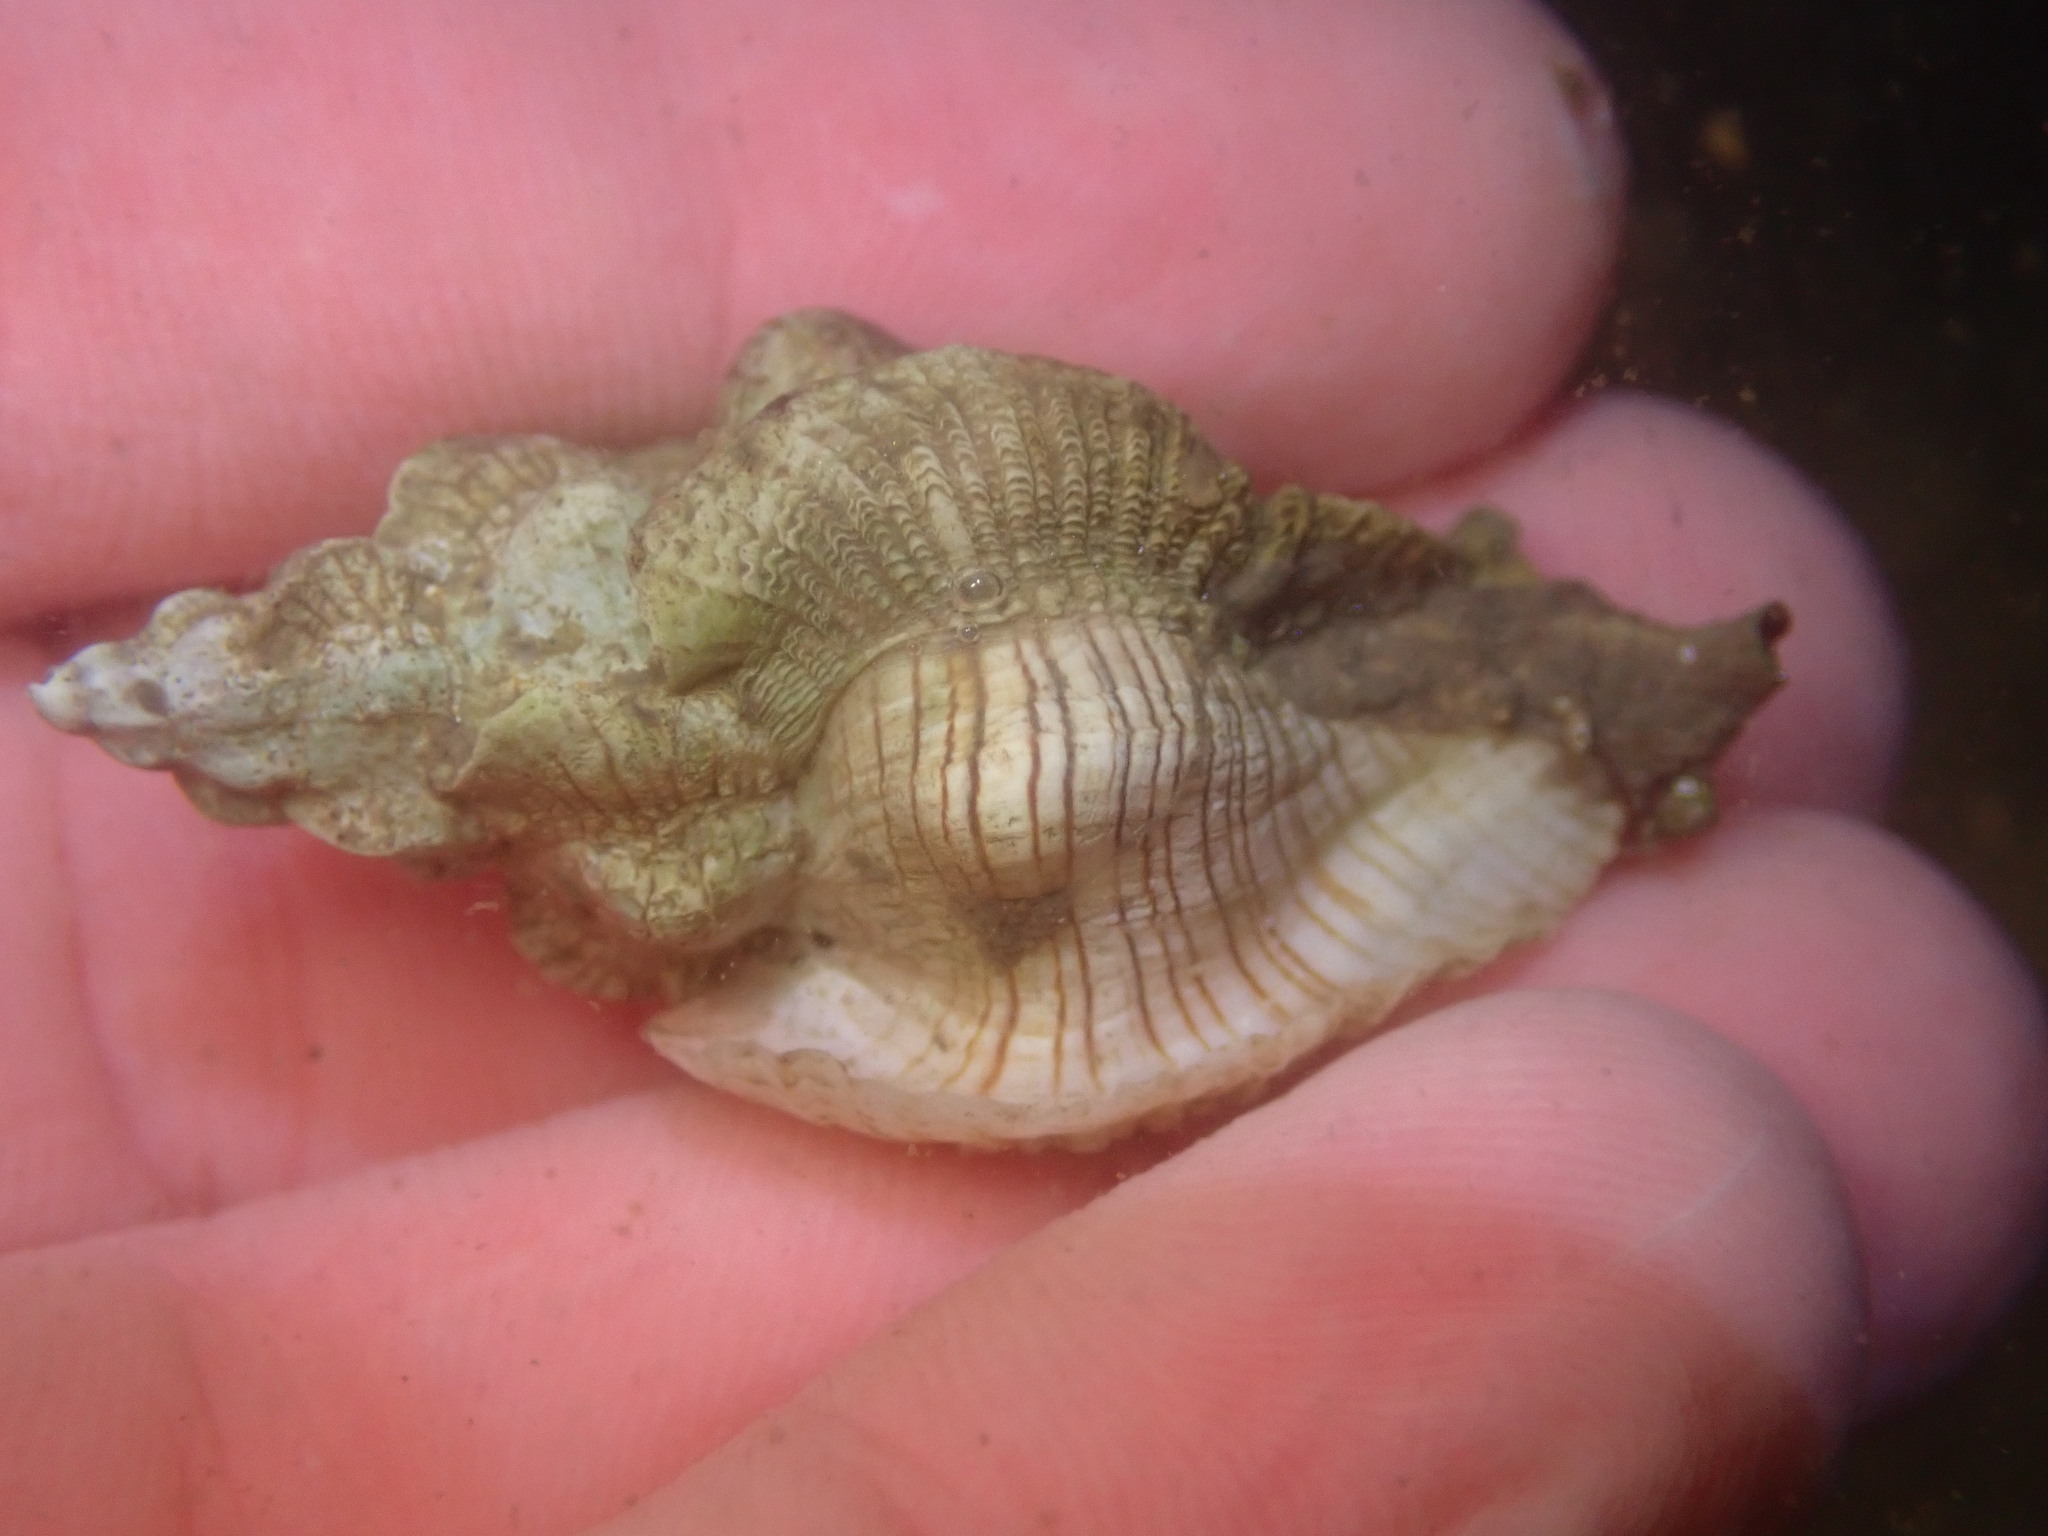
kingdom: Animalia
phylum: Mollusca
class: Gastropoda
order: Neogastropoda
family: Muricidae
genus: Pteropurpura
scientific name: Pteropurpura festiva
